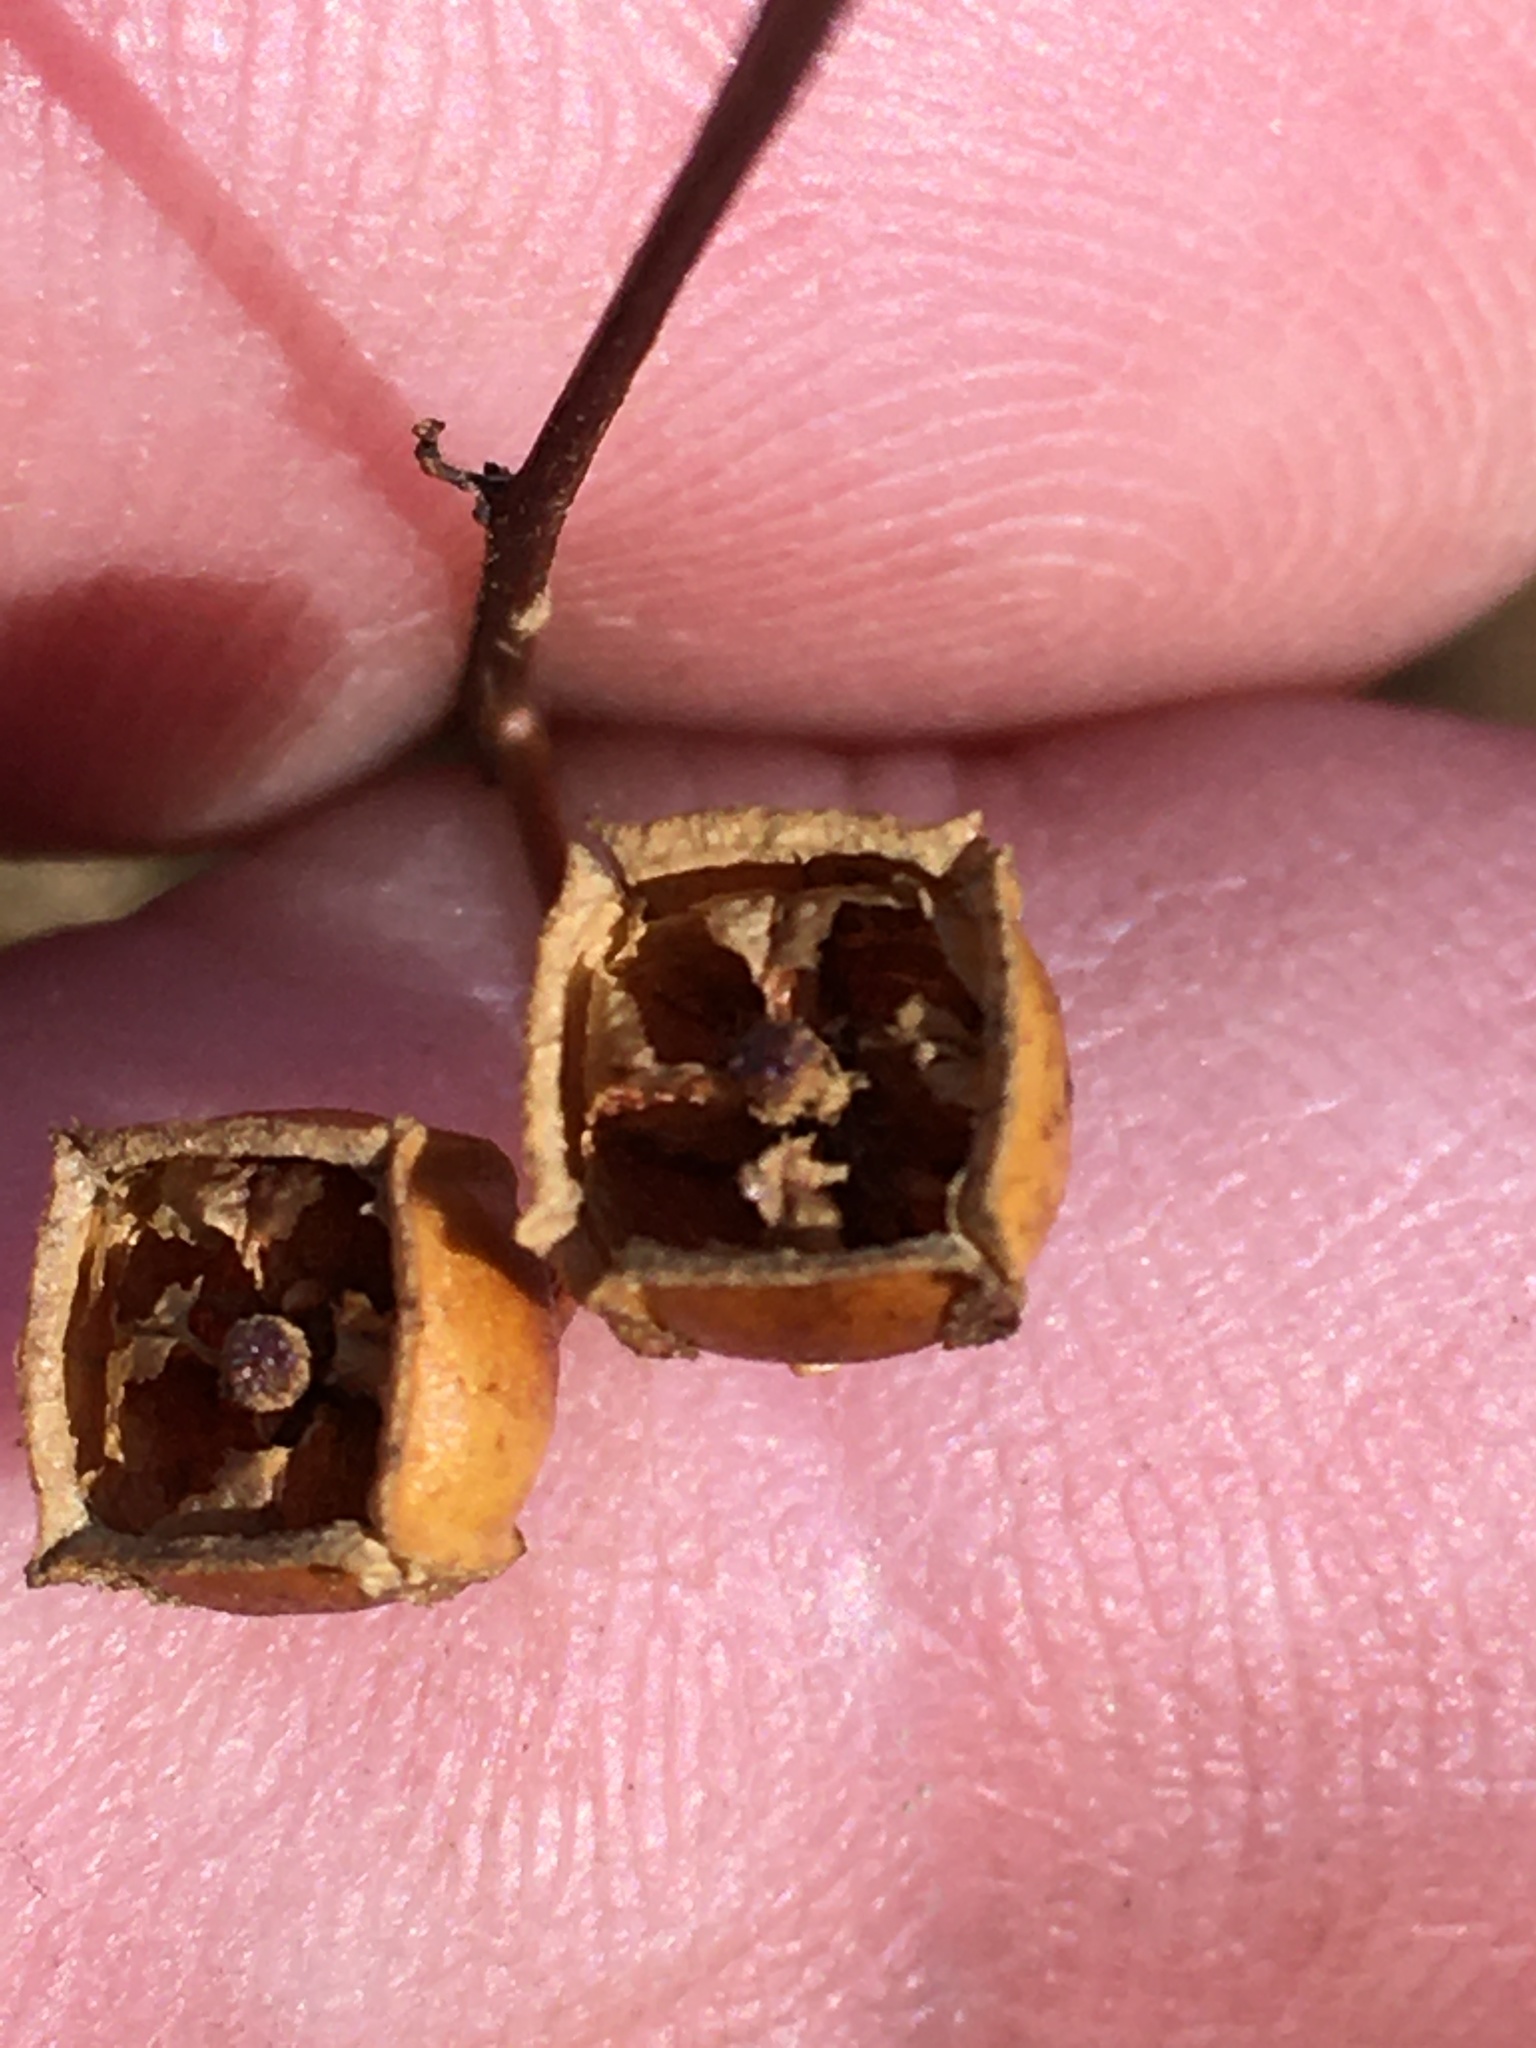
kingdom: Plantae
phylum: Tracheophyta
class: Magnoliopsida
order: Myrtales
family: Onagraceae
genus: Ludwigia
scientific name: Ludwigia alternifolia
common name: Rattlebox
